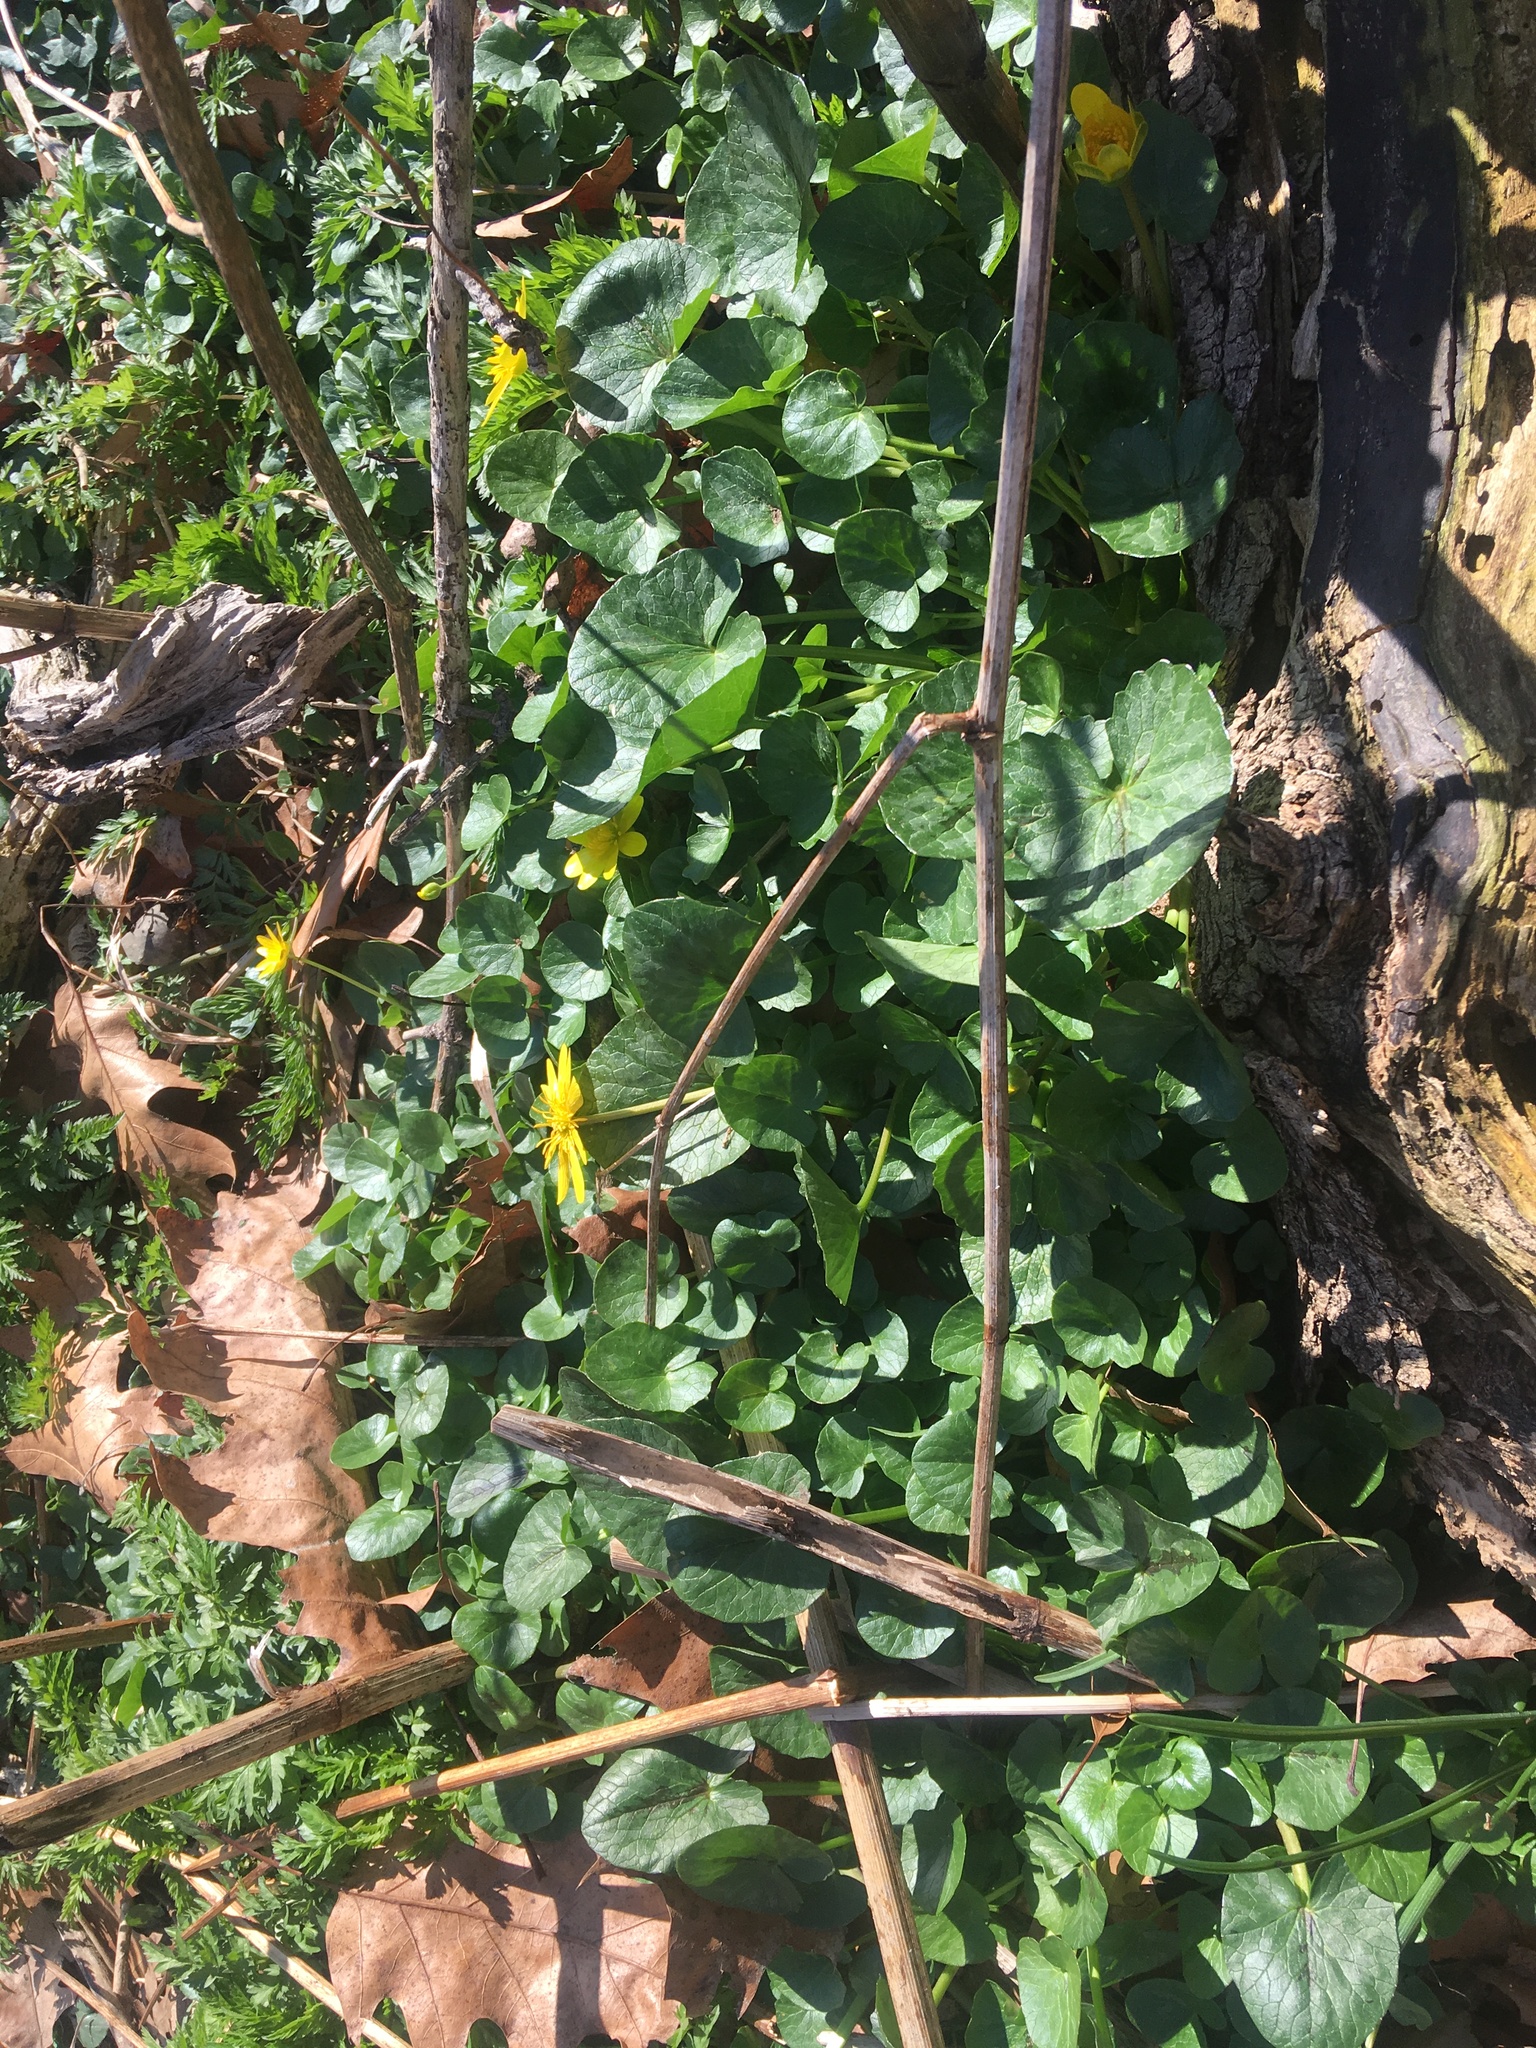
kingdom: Plantae
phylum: Tracheophyta
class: Magnoliopsida
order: Ranunculales
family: Ranunculaceae
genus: Ficaria
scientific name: Ficaria verna
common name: Lesser celandine
